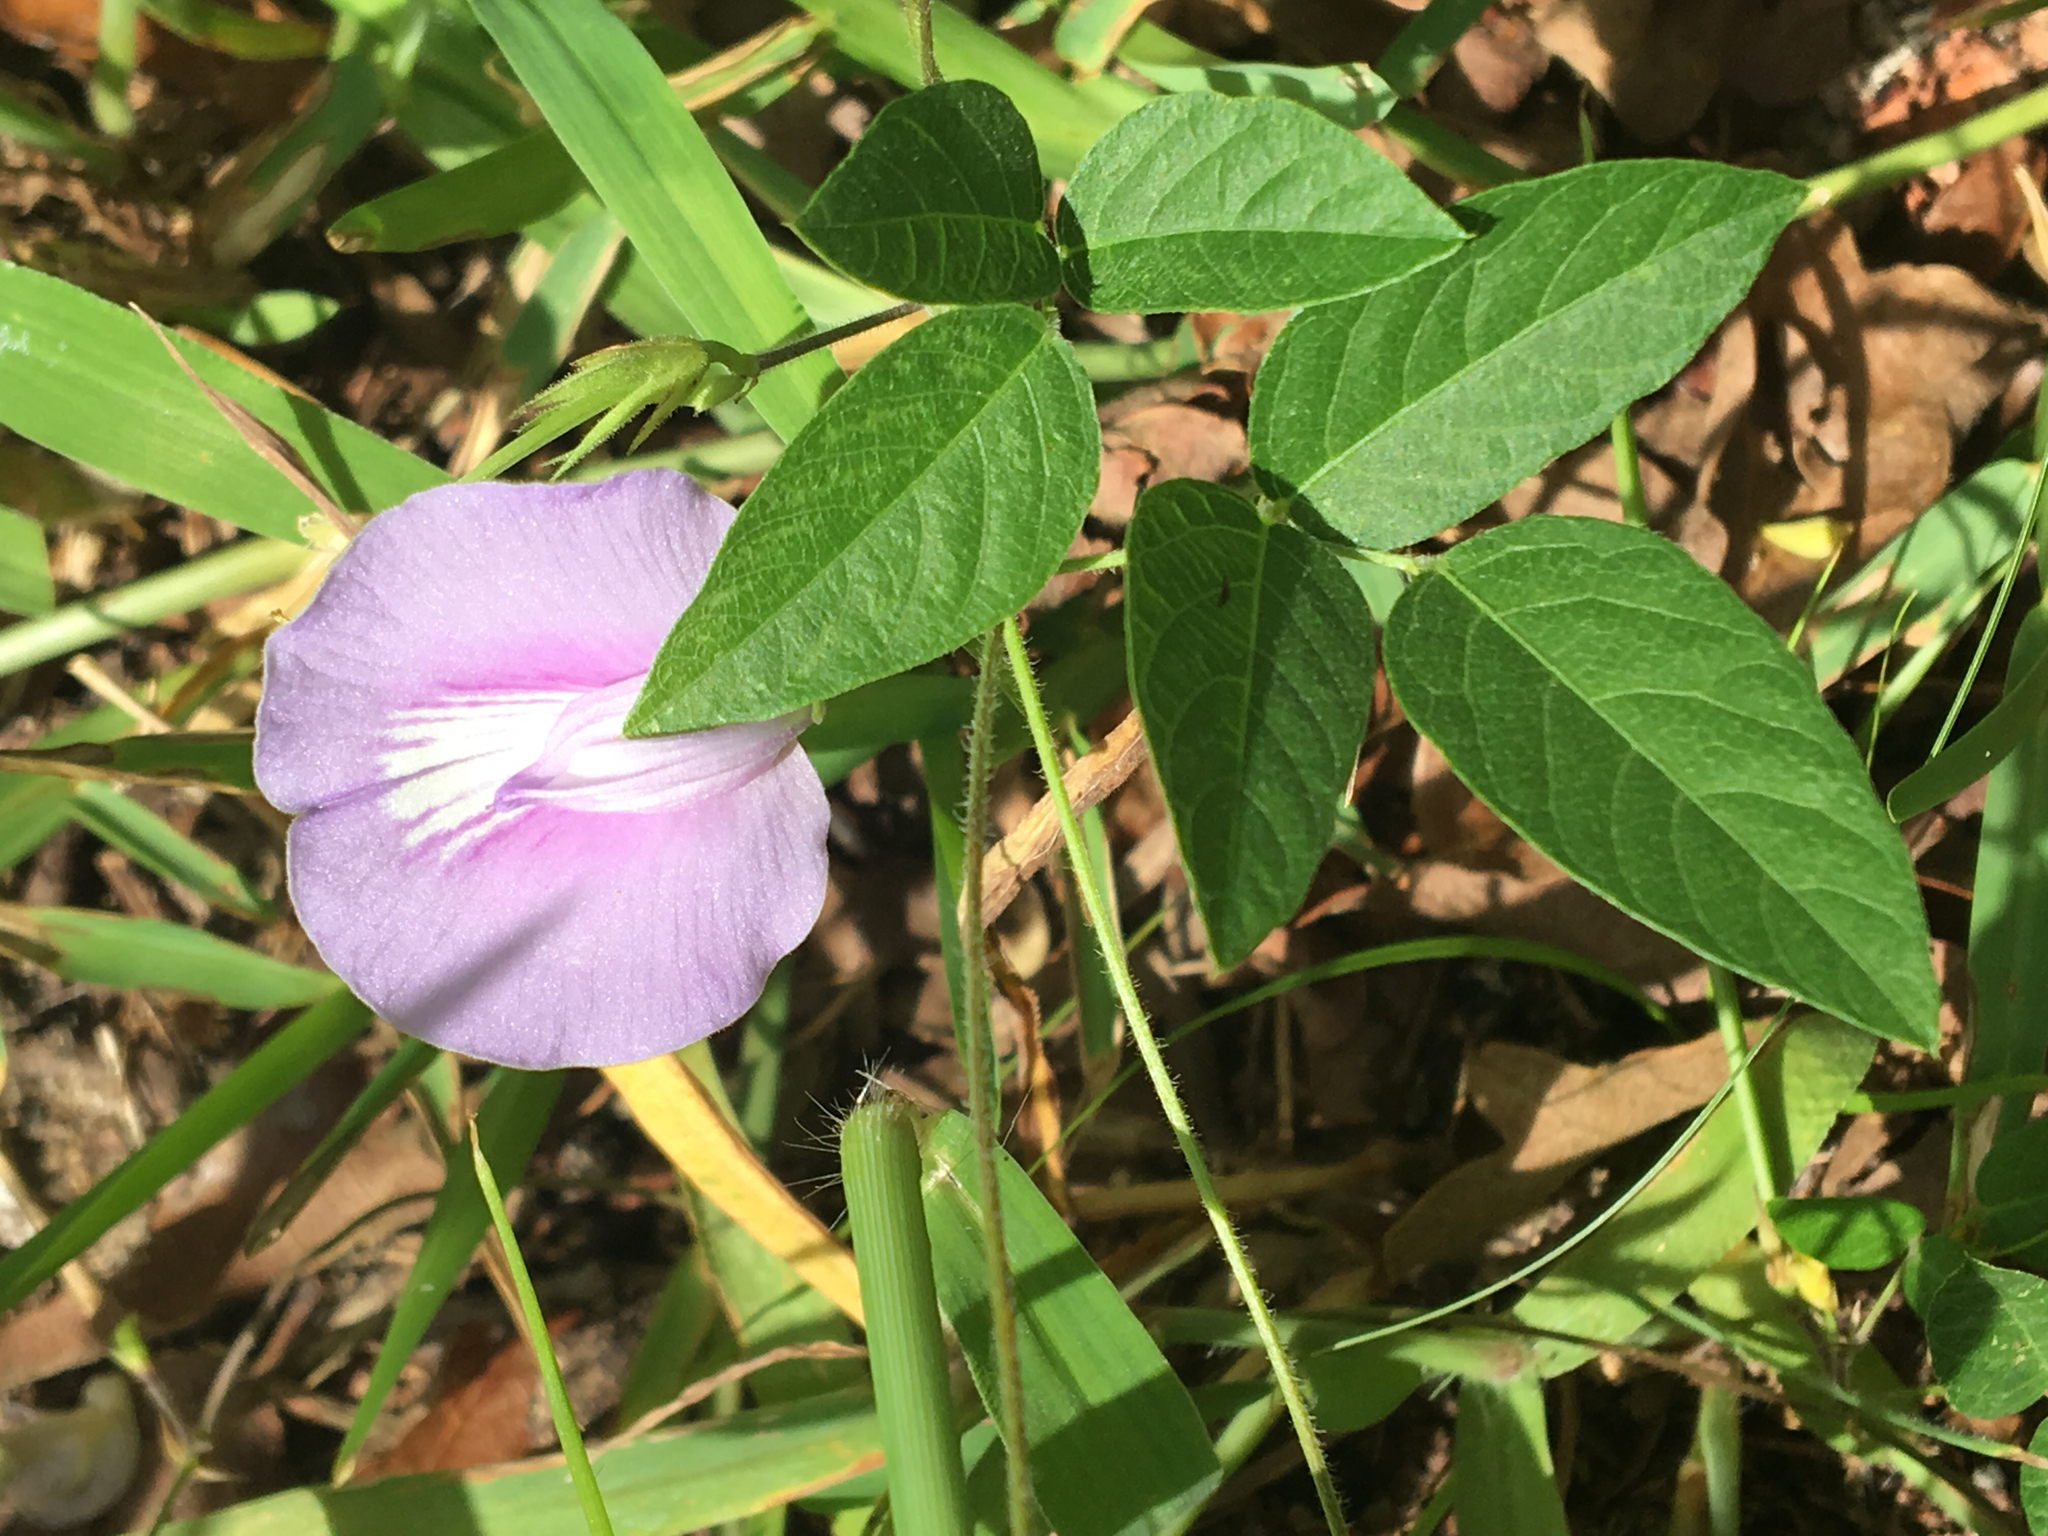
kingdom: Plantae
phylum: Tracheophyta
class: Magnoliopsida
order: Fabales
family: Fabaceae
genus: Centrosema
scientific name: Centrosema virginianum
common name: Butterfly-pea
